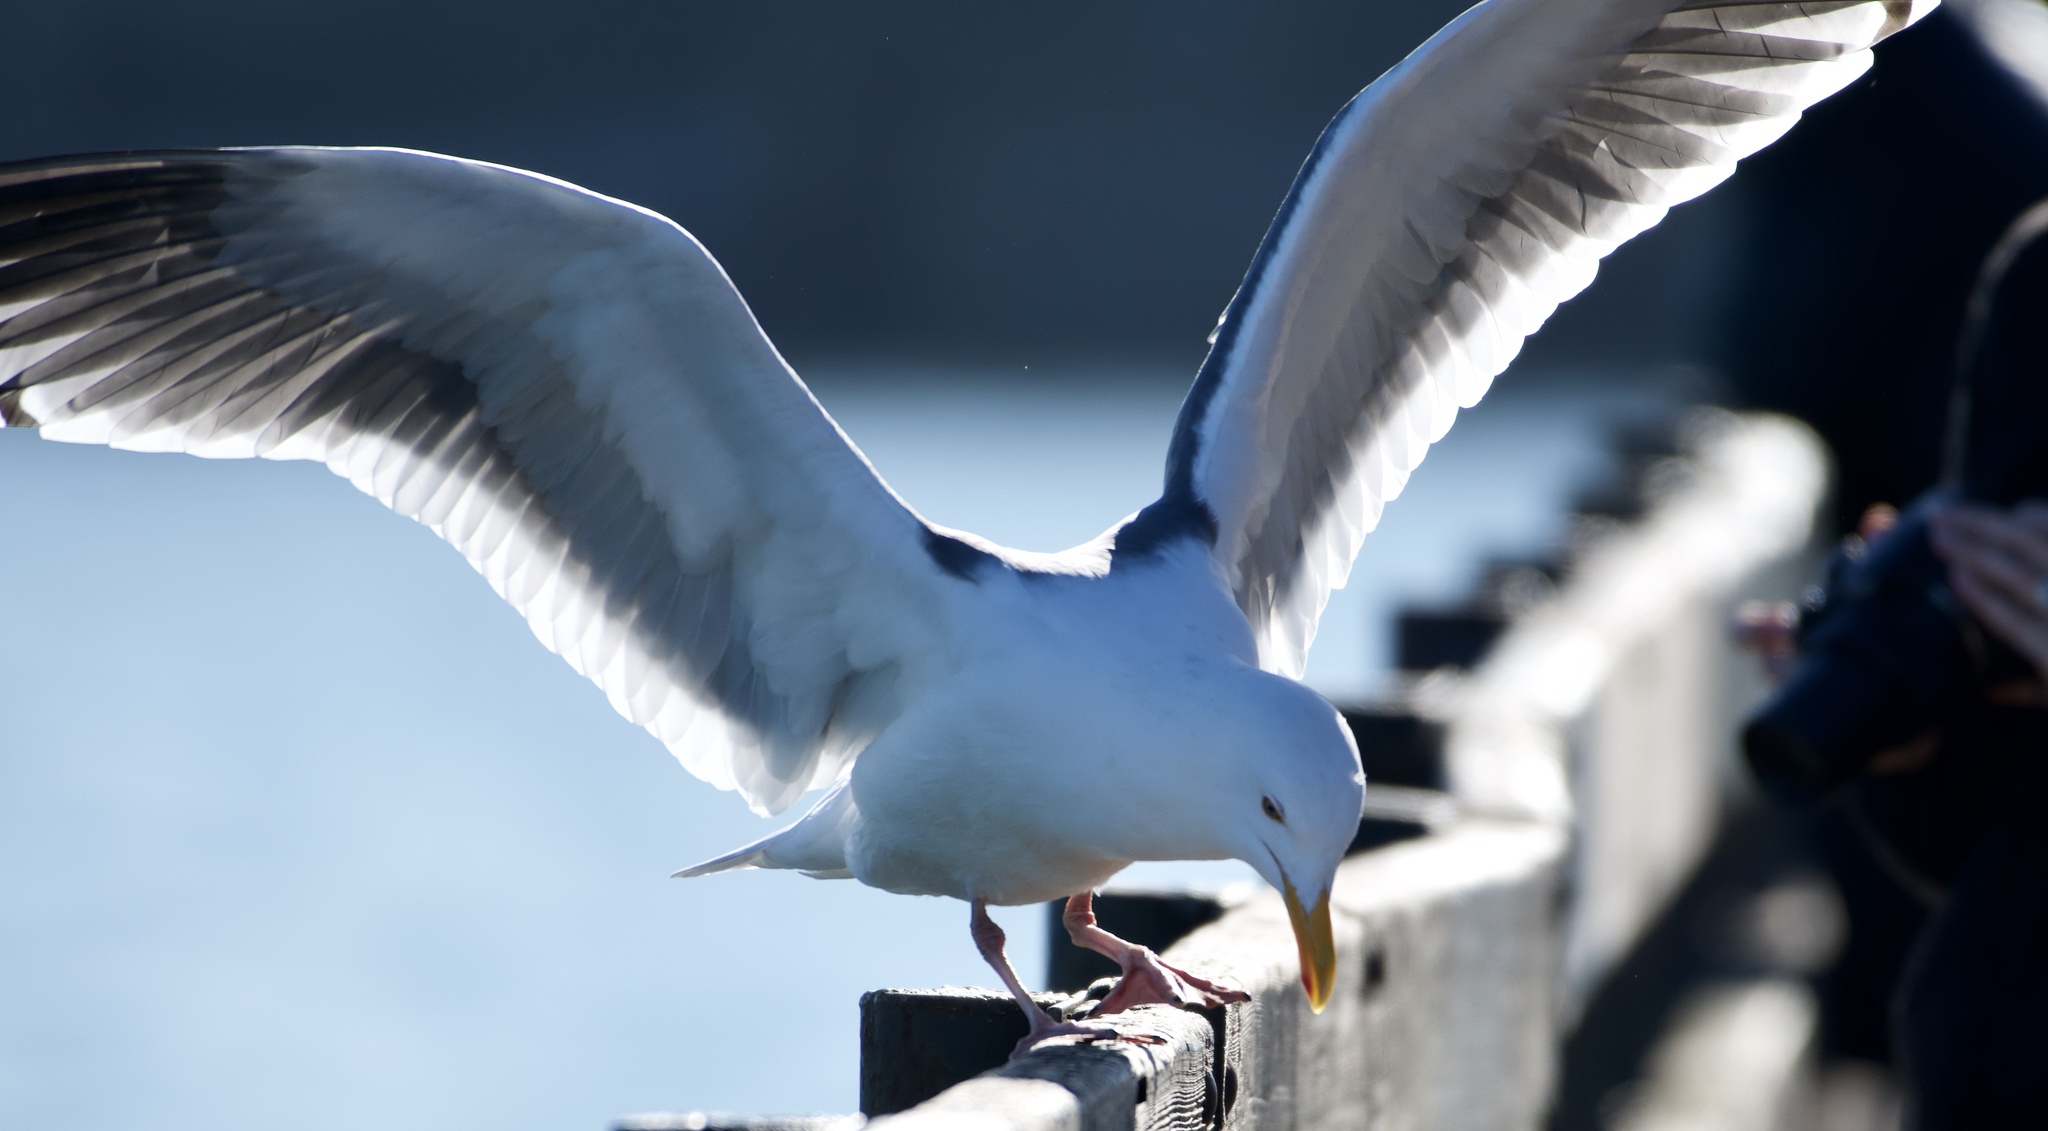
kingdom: Animalia
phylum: Chordata
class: Aves
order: Charadriiformes
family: Laridae
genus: Larus
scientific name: Larus occidentalis
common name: Western gull
